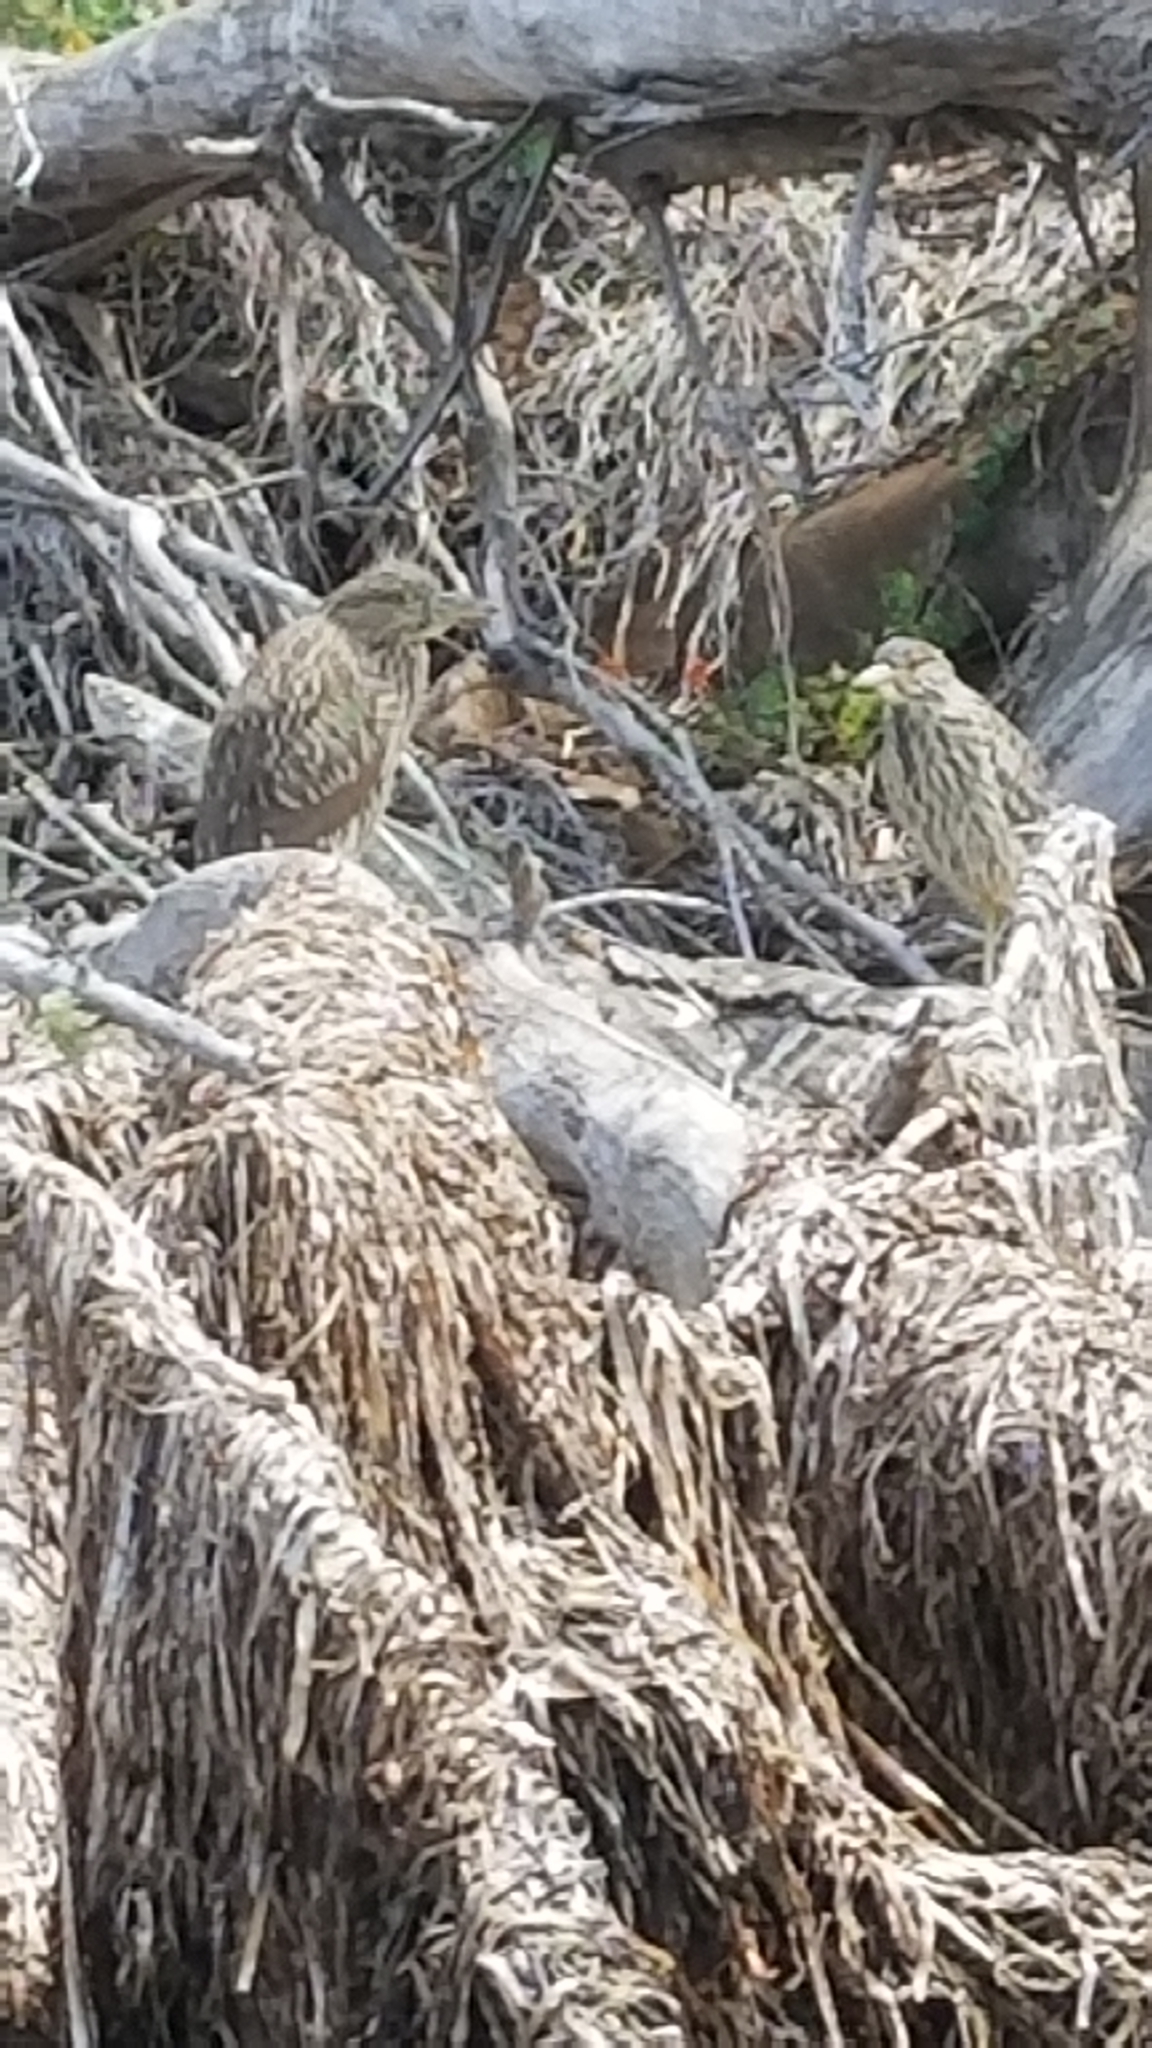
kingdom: Animalia
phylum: Chordata
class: Aves
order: Pelecaniformes
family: Ardeidae
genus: Nycticorax
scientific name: Nycticorax nycticorax
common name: Black-crowned night heron
